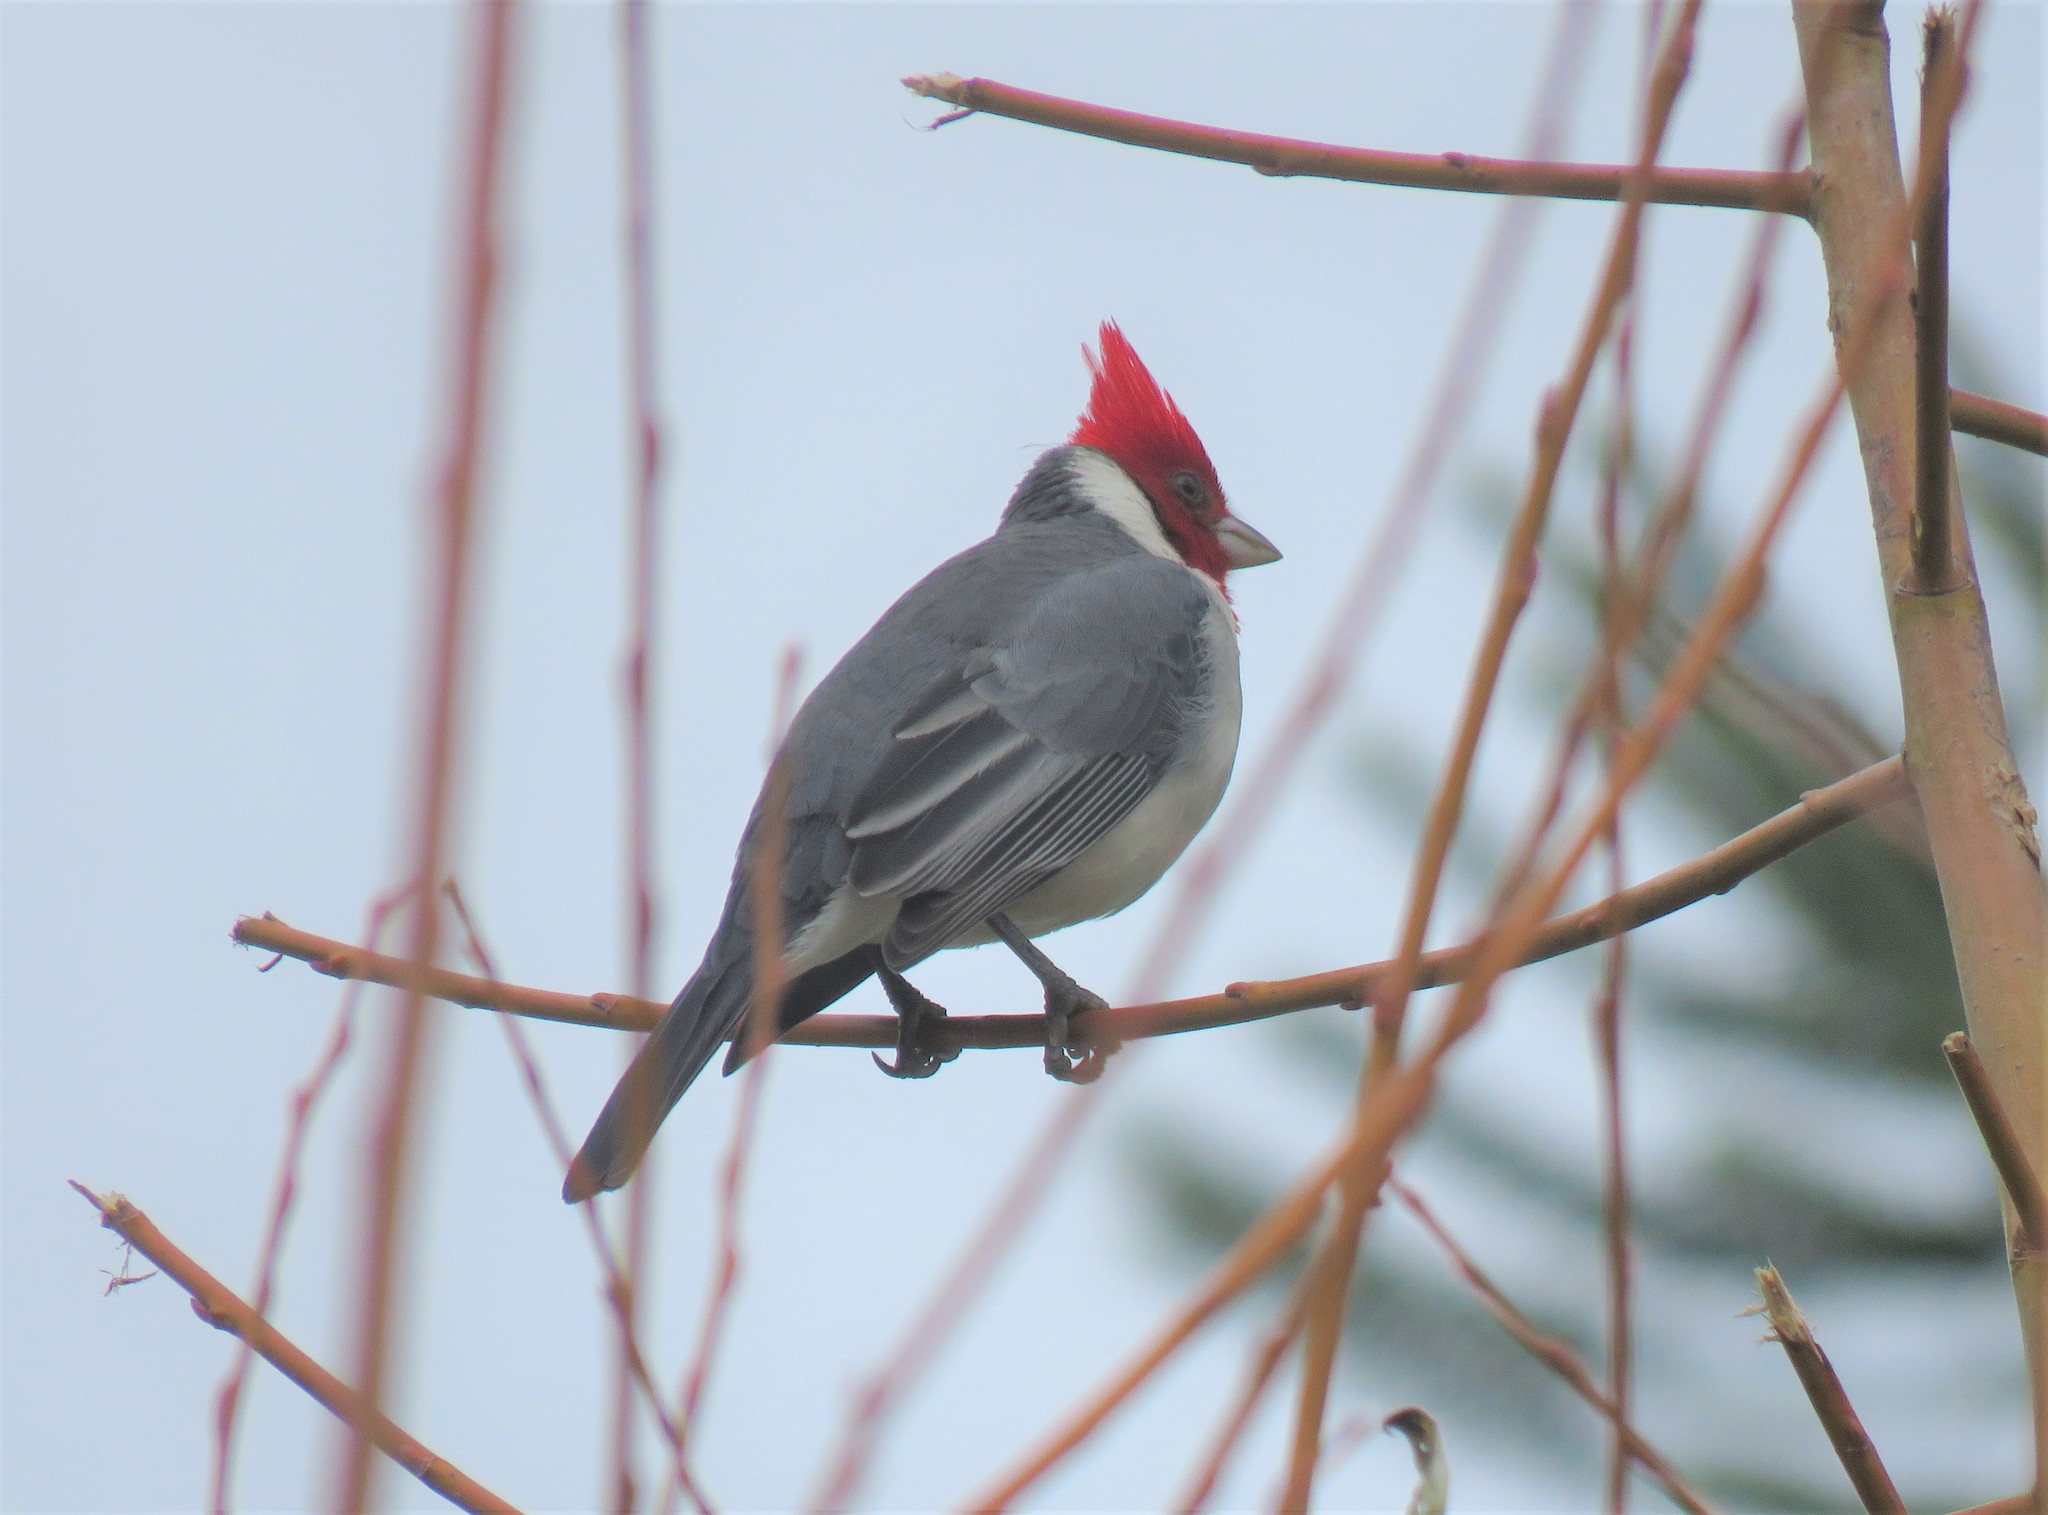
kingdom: Animalia
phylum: Chordata
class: Aves
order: Passeriformes
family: Thraupidae
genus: Paroaria
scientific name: Paroaria coronata
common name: Red-crested cardinal
